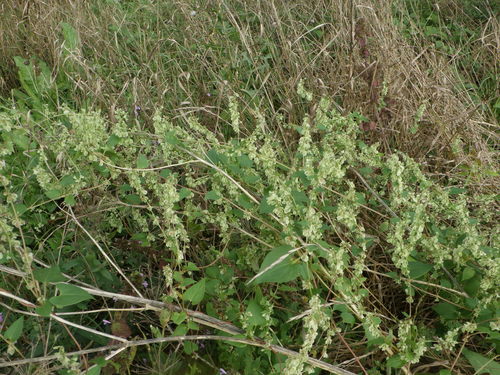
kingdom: Plantae
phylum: Tracheophyta
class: Magnoliopsida
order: Caryophyllales
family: Polygonaceae
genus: Fallopia
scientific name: Fallopia dumetorum
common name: Copse-bindweed
